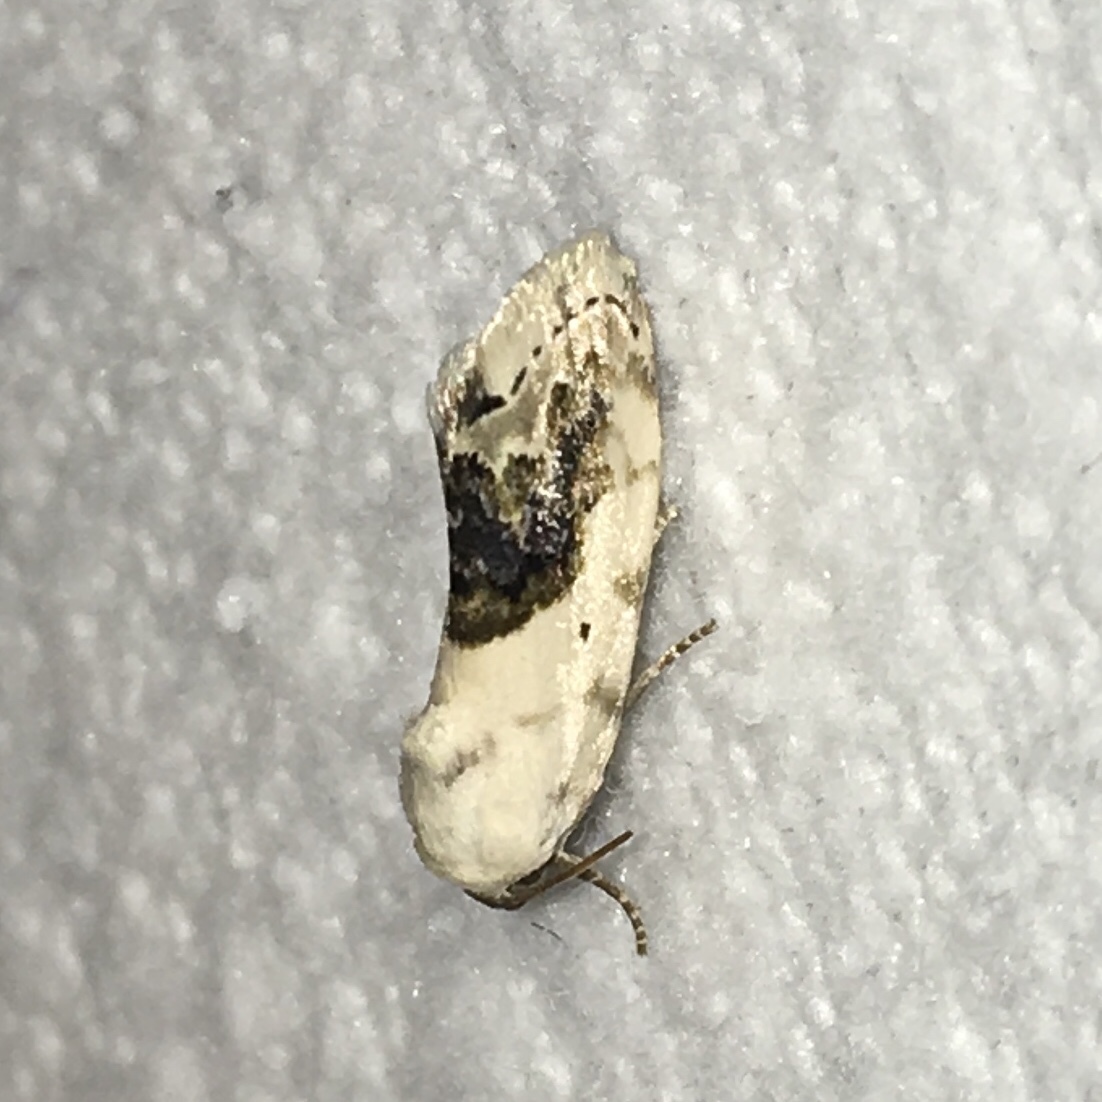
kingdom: Animalia
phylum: Arthropoda
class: Insecta
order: Lepidoptera
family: Noctuidae
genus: Acontia
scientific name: Acontia erastrioides
